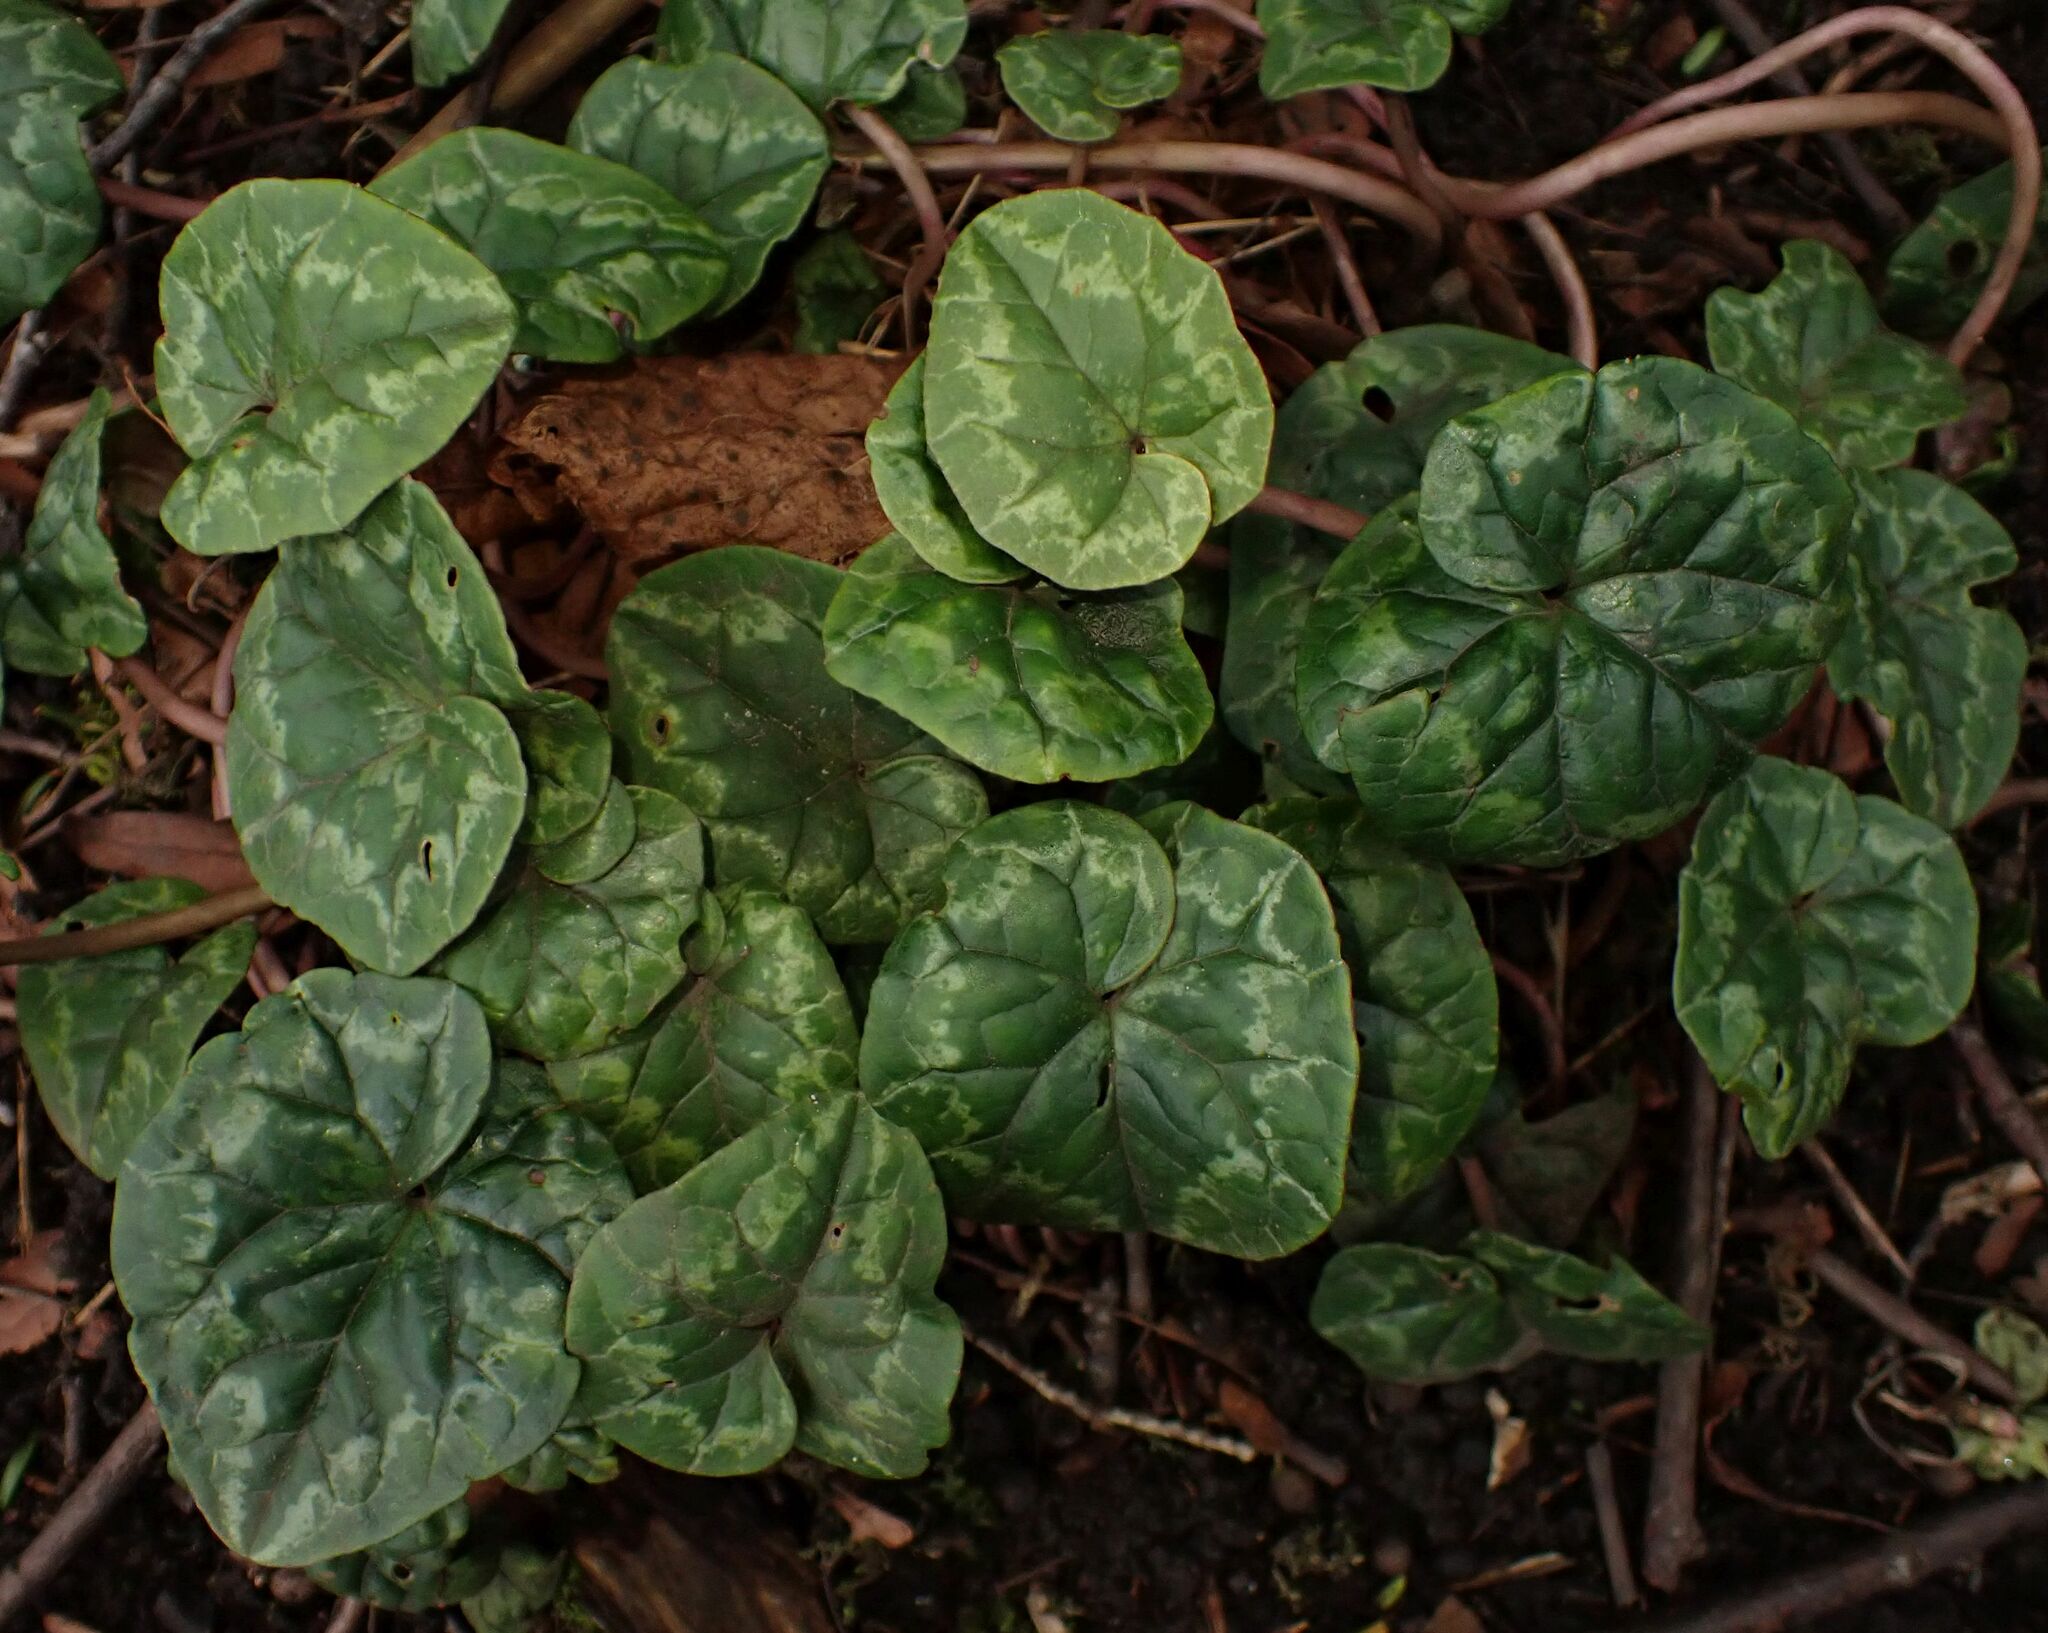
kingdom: Plantae
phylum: Tracheophyta
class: Magnoliopsida
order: Ericales
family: Primulaceae
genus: Cyclamen
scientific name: Cyclamen hederifolium
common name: Sowbread
